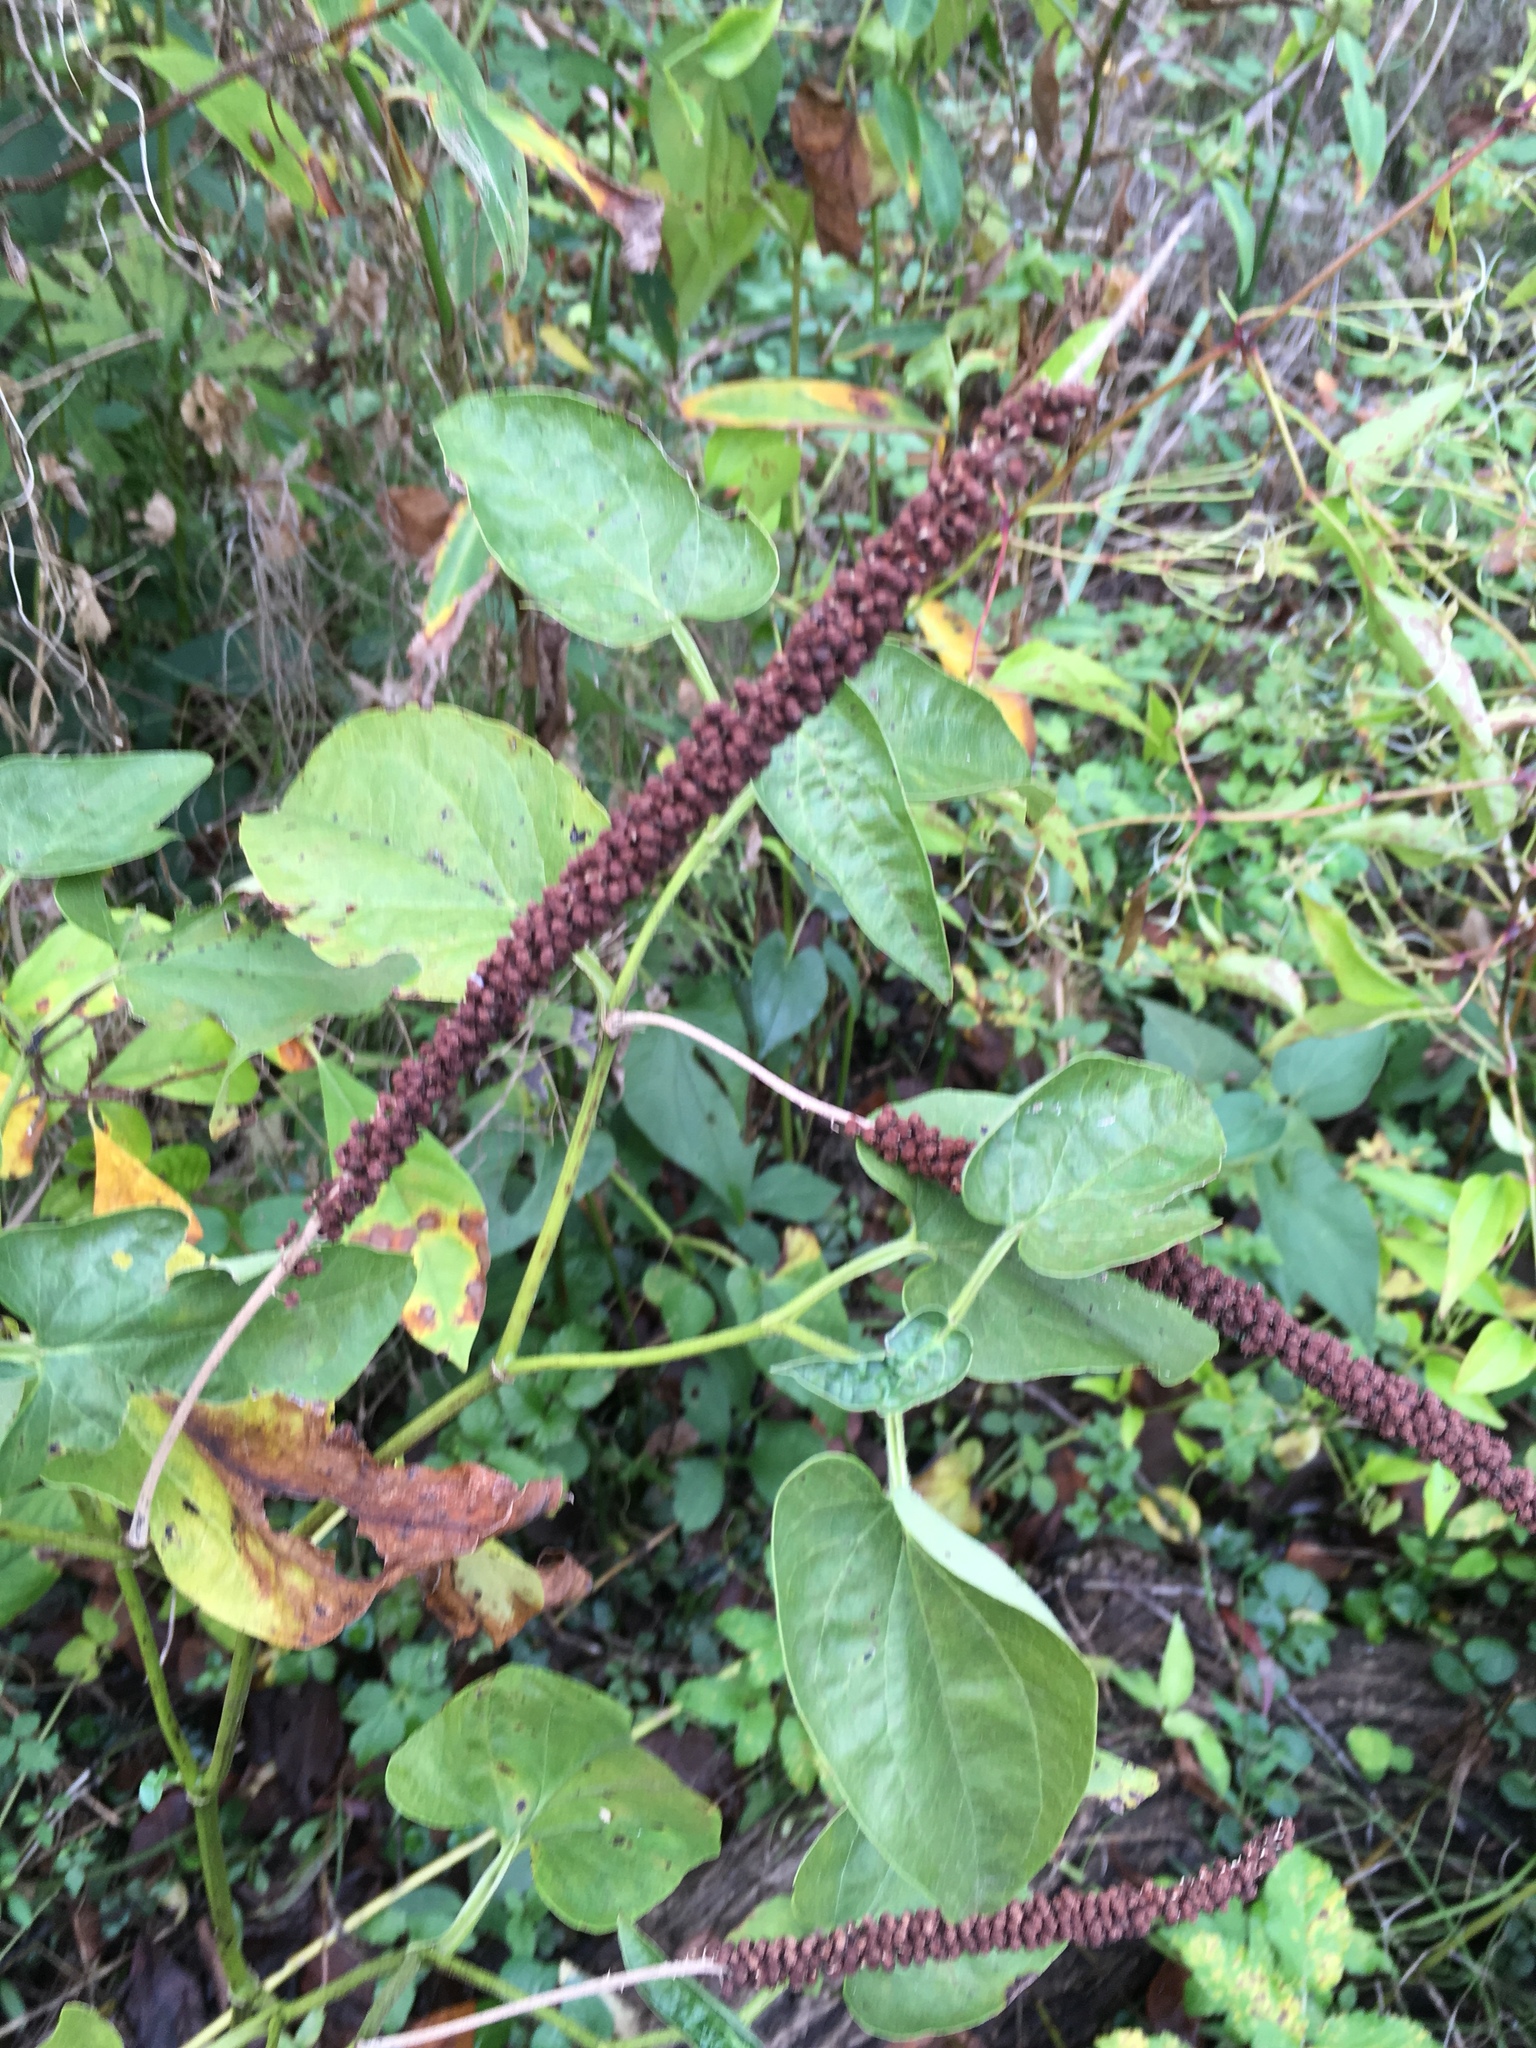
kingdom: Plantae
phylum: Tracheophyta
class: Magnoliopsida
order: Piperales
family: Saururaceae
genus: Saururus
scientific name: Saururus cernuus
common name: Lizard's-tail
